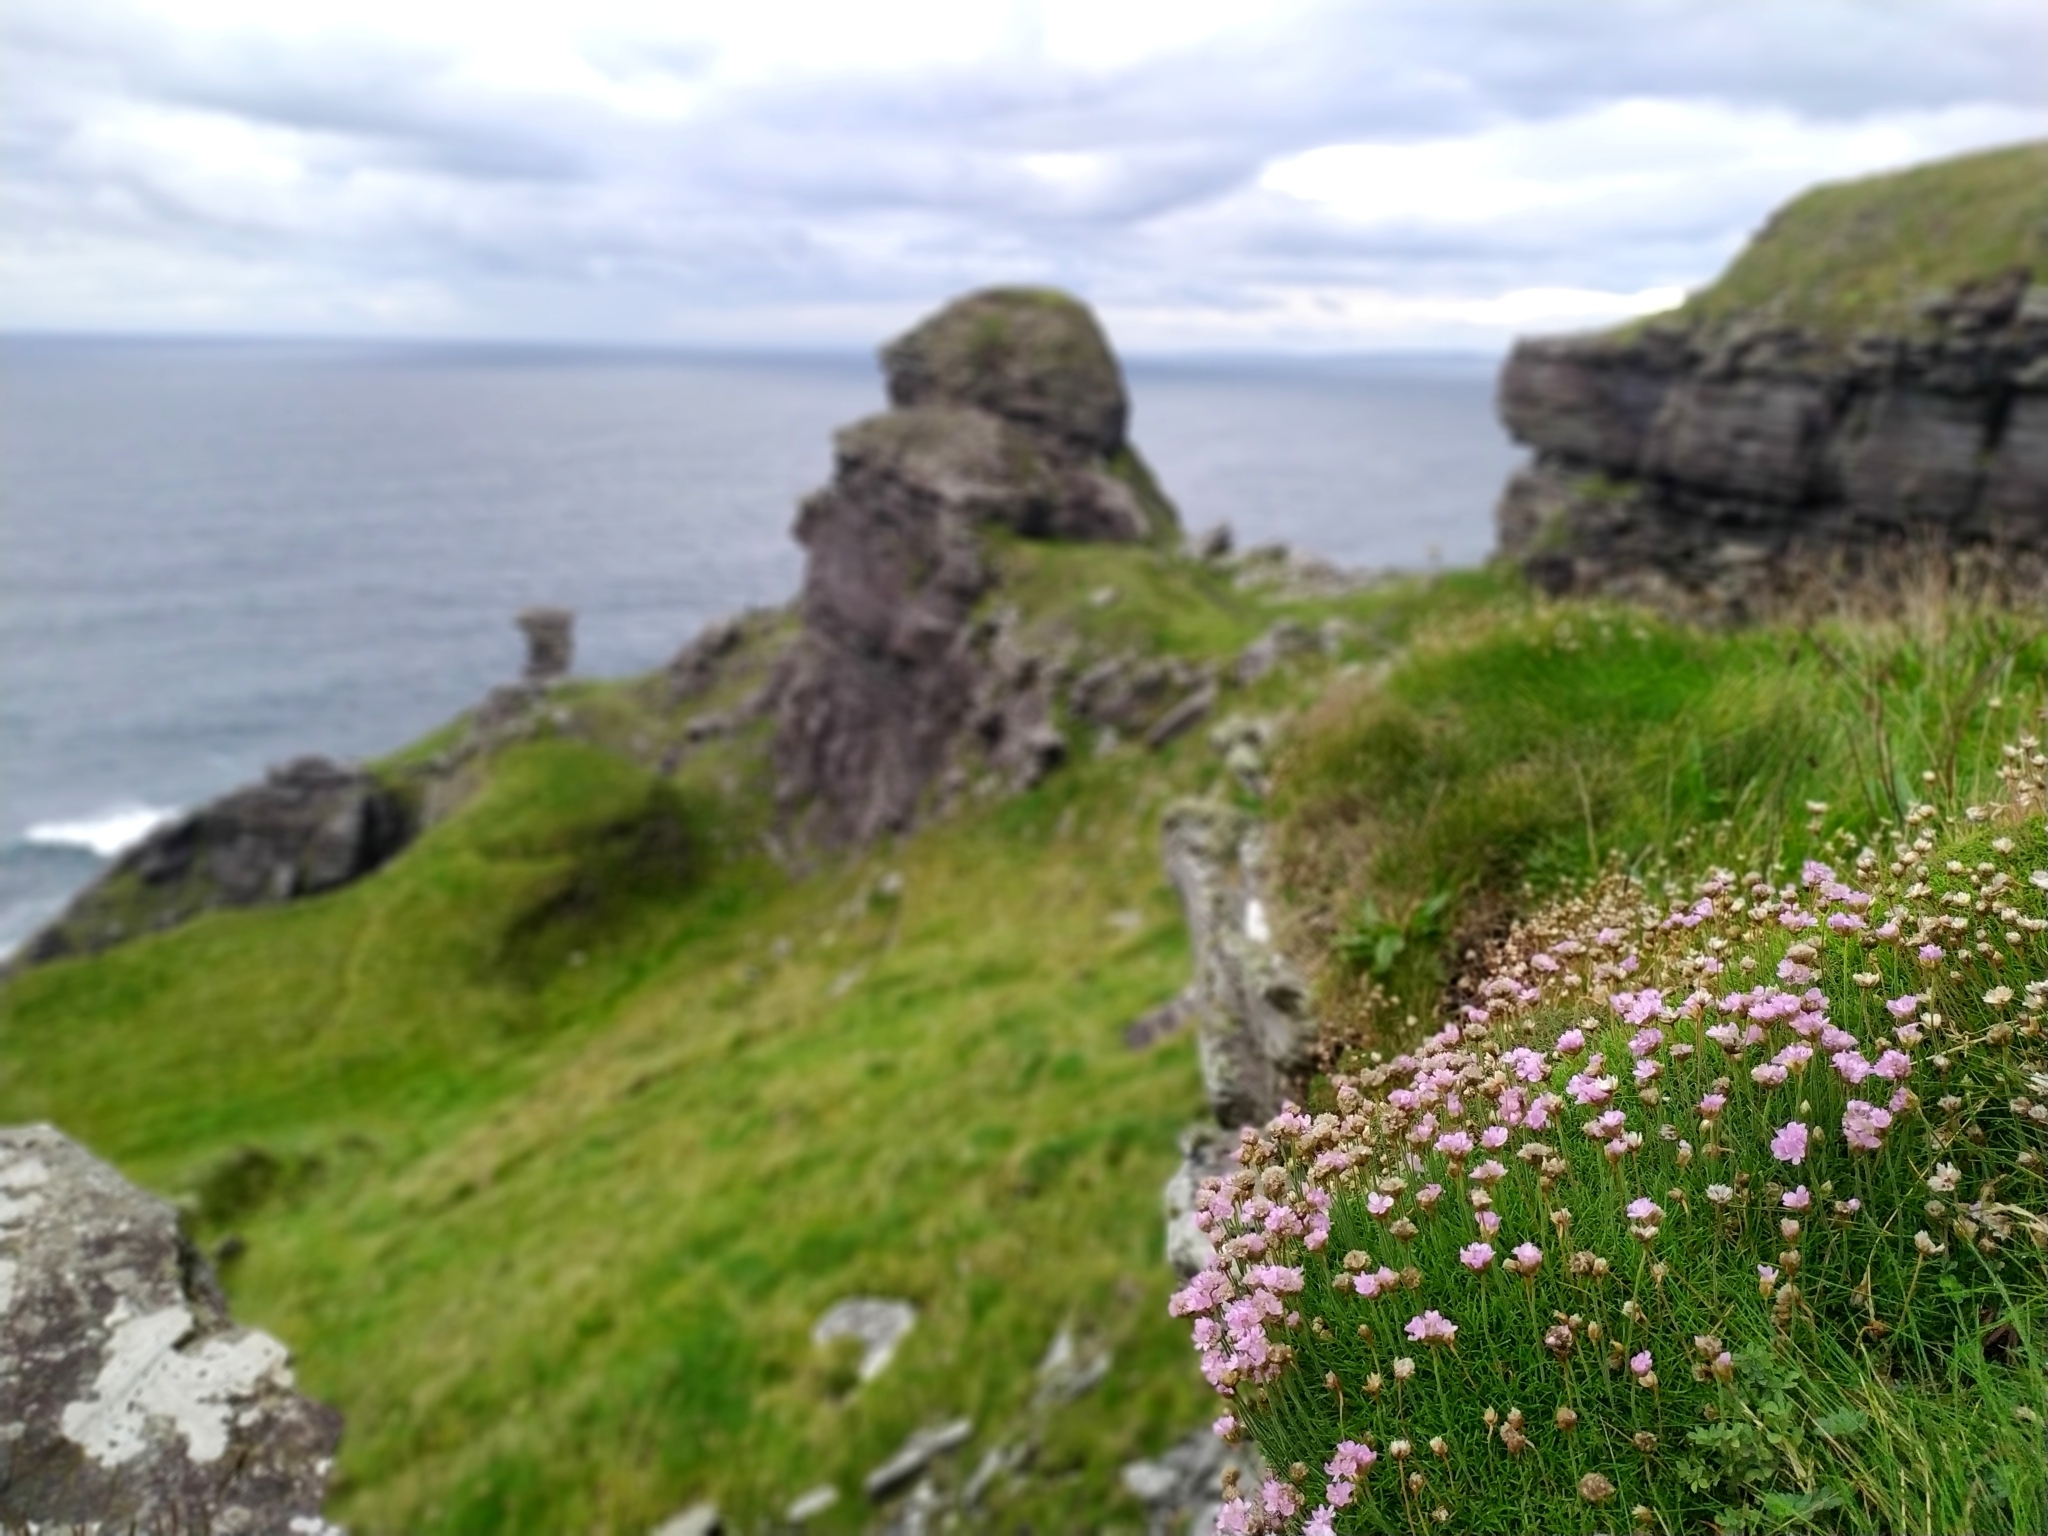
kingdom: Plantae
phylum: Tracheophyta
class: Magnoliopsida
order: Caryophyllales
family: Plumbaginaceae
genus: Armeria
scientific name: Armeria maritima
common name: Thrift
